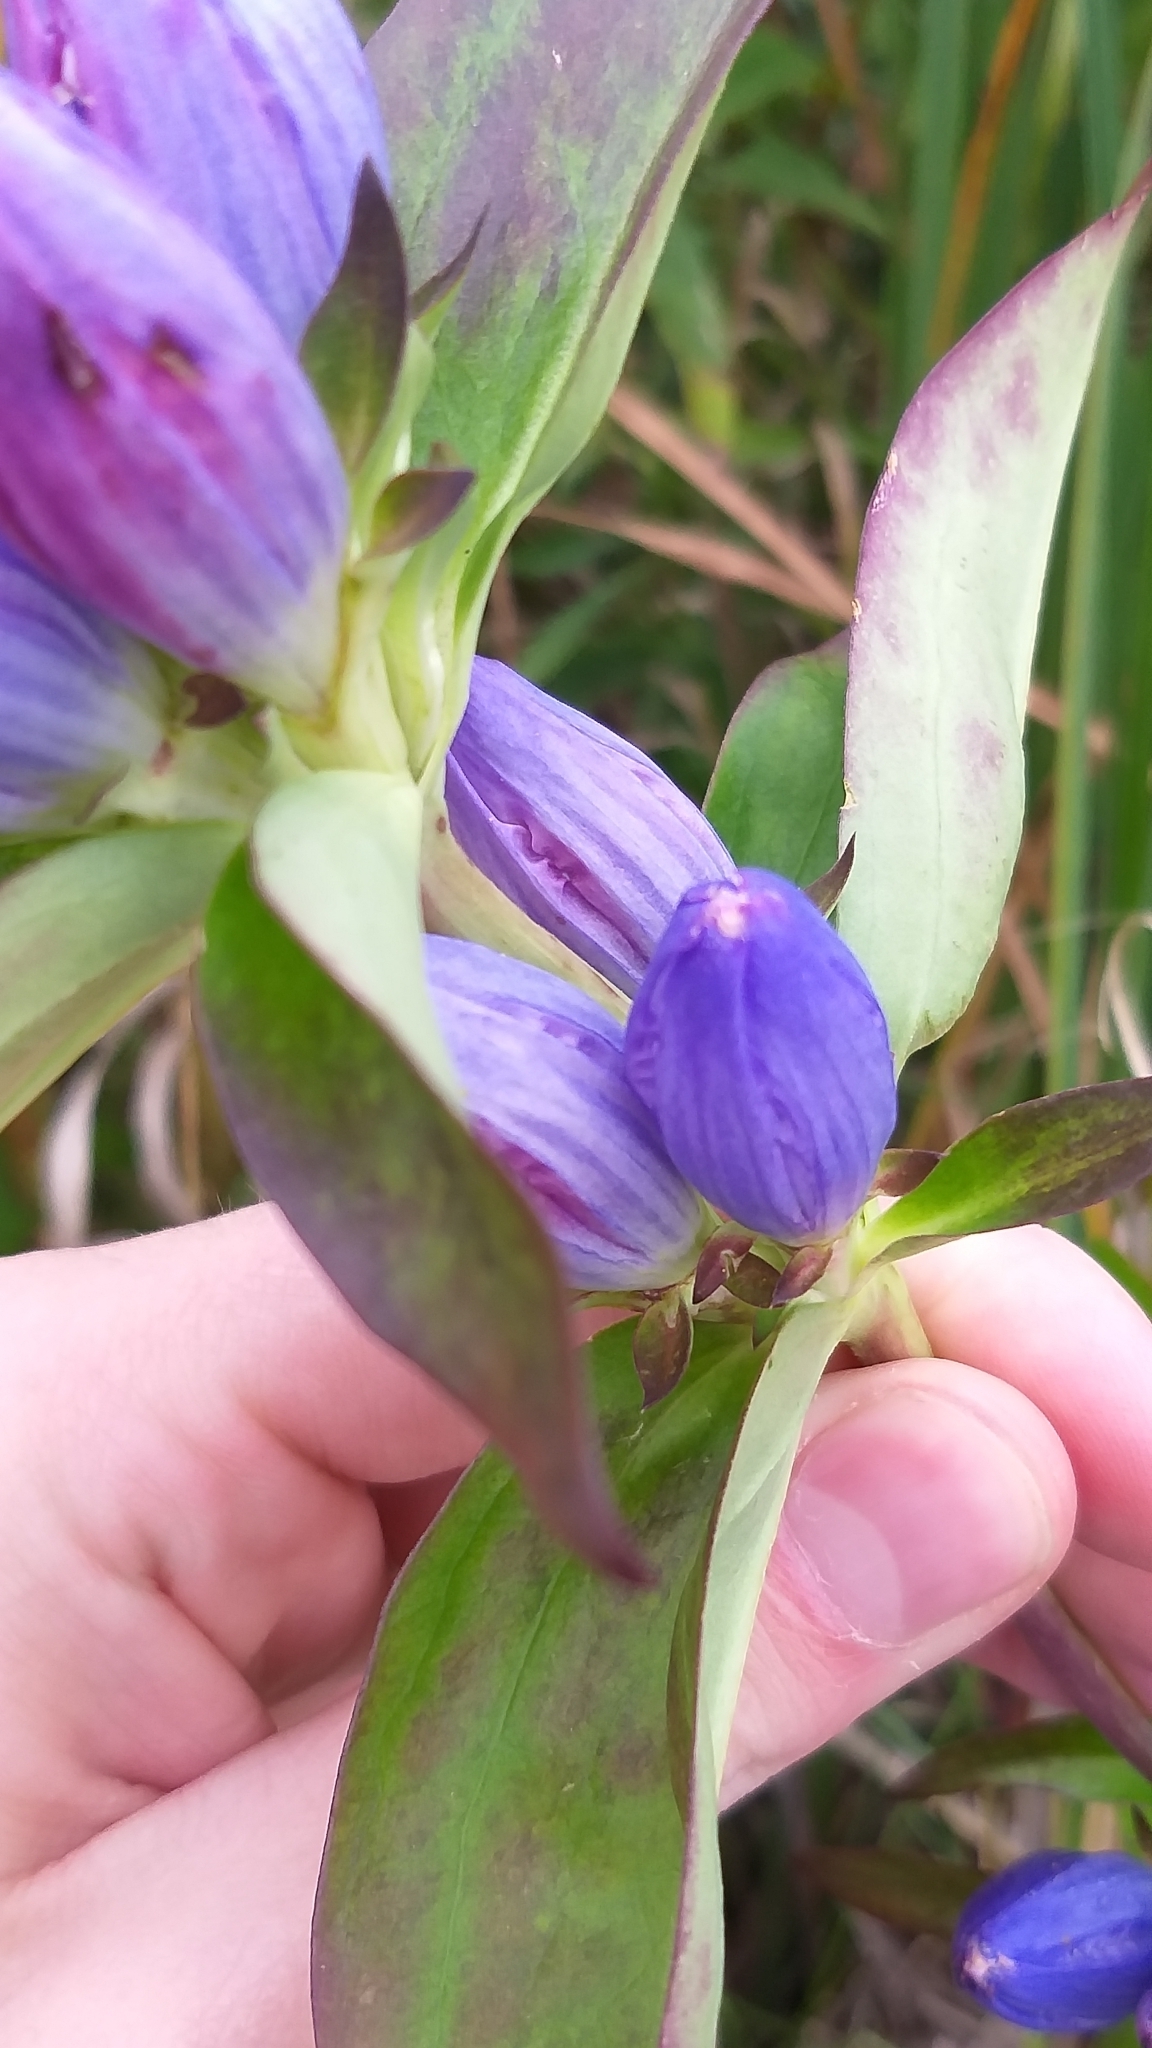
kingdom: Plantae
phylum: Tracheophyta
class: Magnoliopsida
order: Gentianales
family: Gentianaceae
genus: Gentiana
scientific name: Gentiana andrewsii
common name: Bottle gentian
